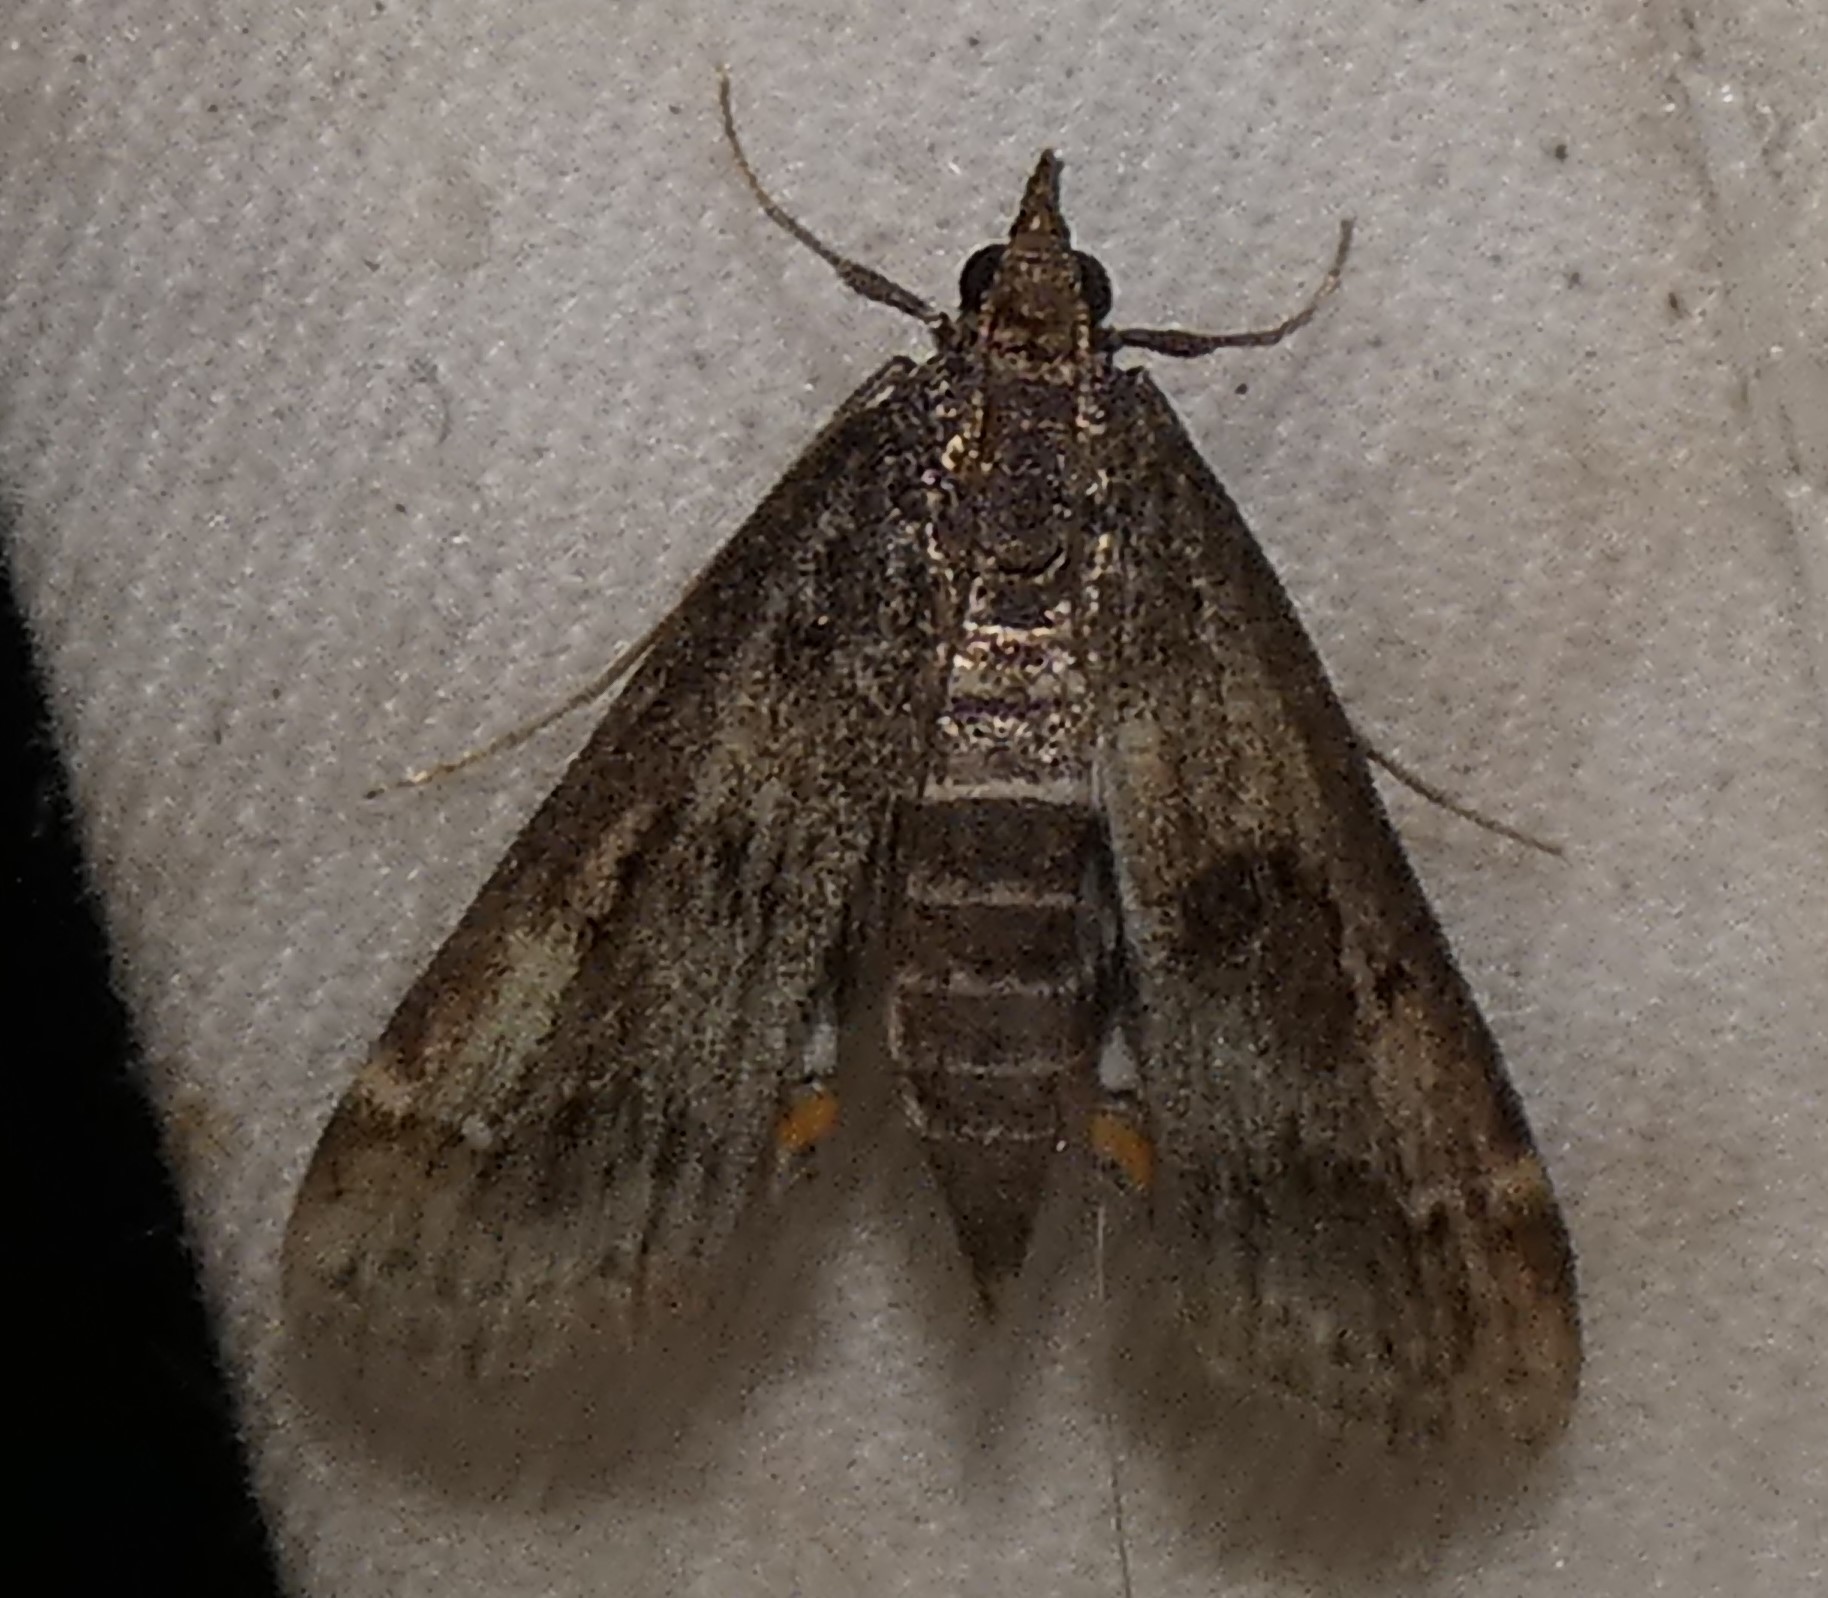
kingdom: Animalia
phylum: Arthropoda
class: Insecta
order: Lepidoptera
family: Crambidae
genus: Parapoynx
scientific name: Parapoynx obscuralis
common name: American china-mark
